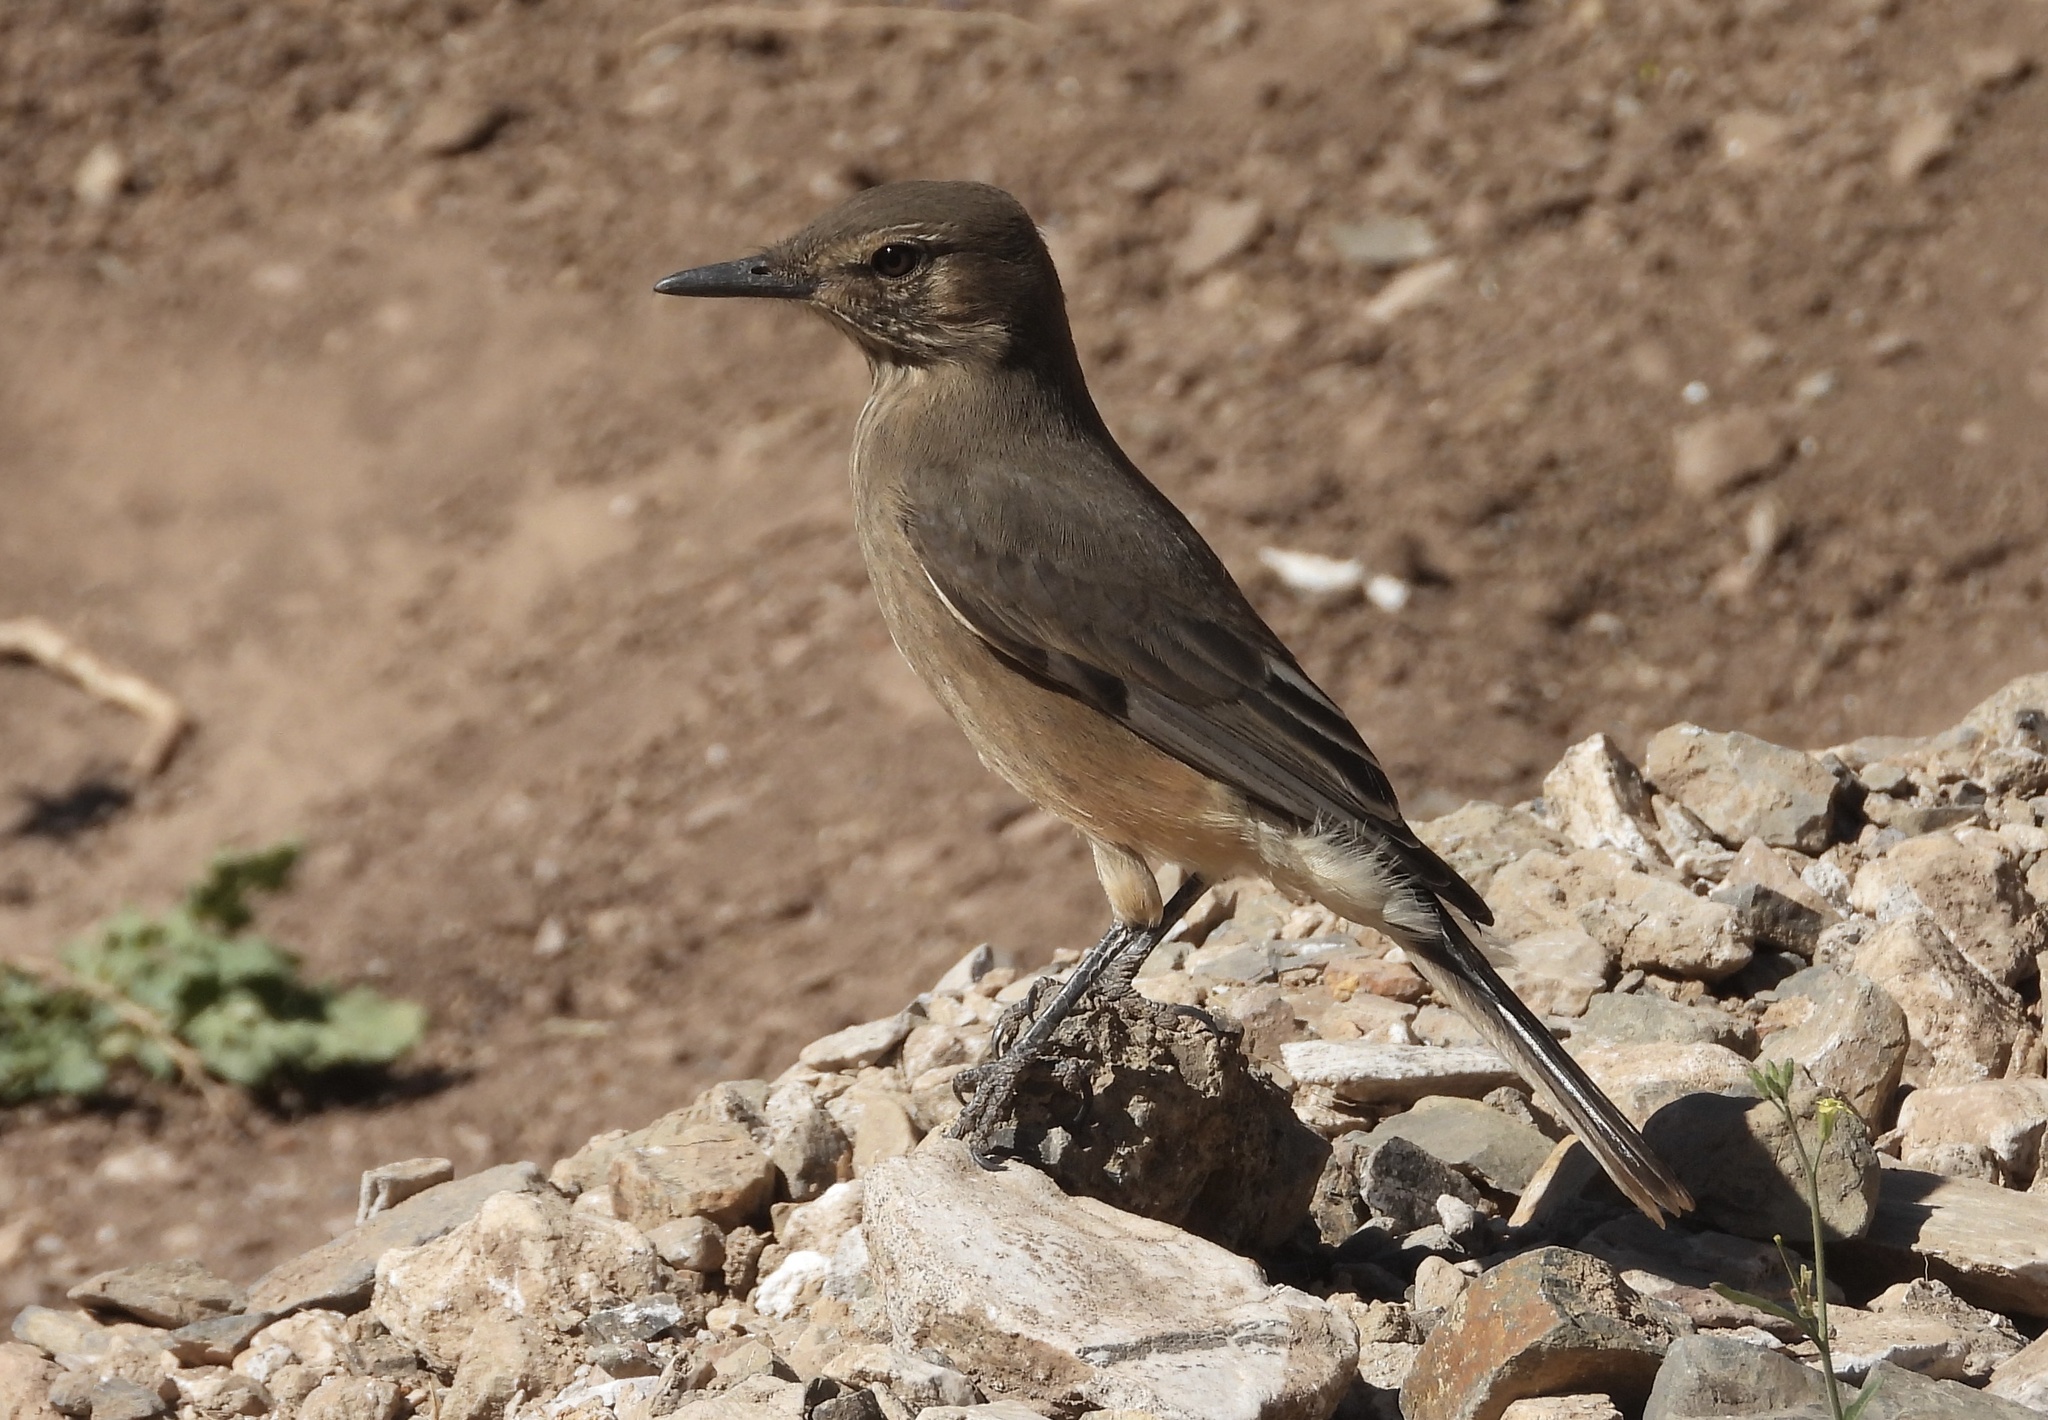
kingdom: Animalia
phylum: Chordata
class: Aves
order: Passeriformes
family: Tyrannidae
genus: Agriornis
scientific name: Agriornis montanus
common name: Black-billed shrike-tyrant
